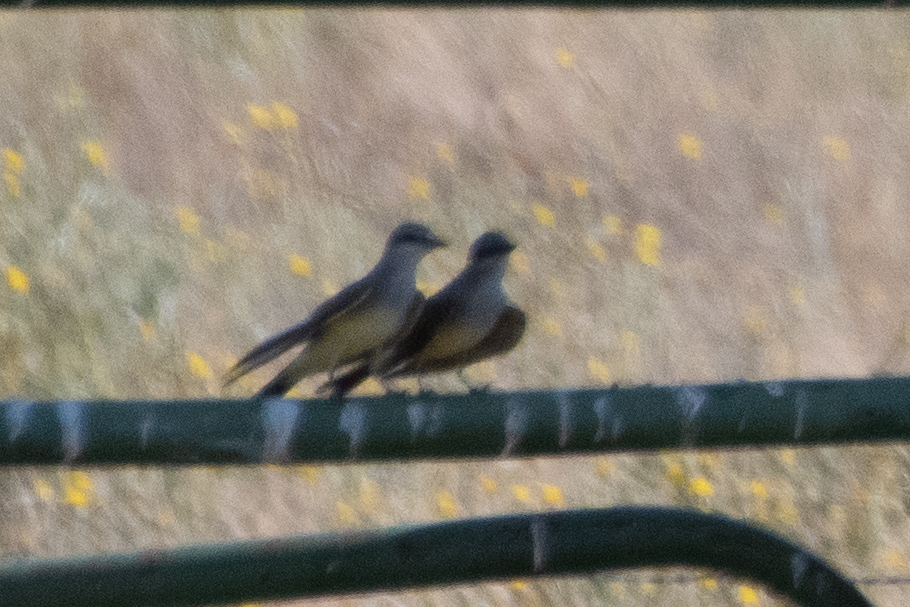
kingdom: Animalia
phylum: Chordata
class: Aves
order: Passeriformes
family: Tyrannidae
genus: Tyrannus
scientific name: Tyrannus verticalis
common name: Western kingbird
